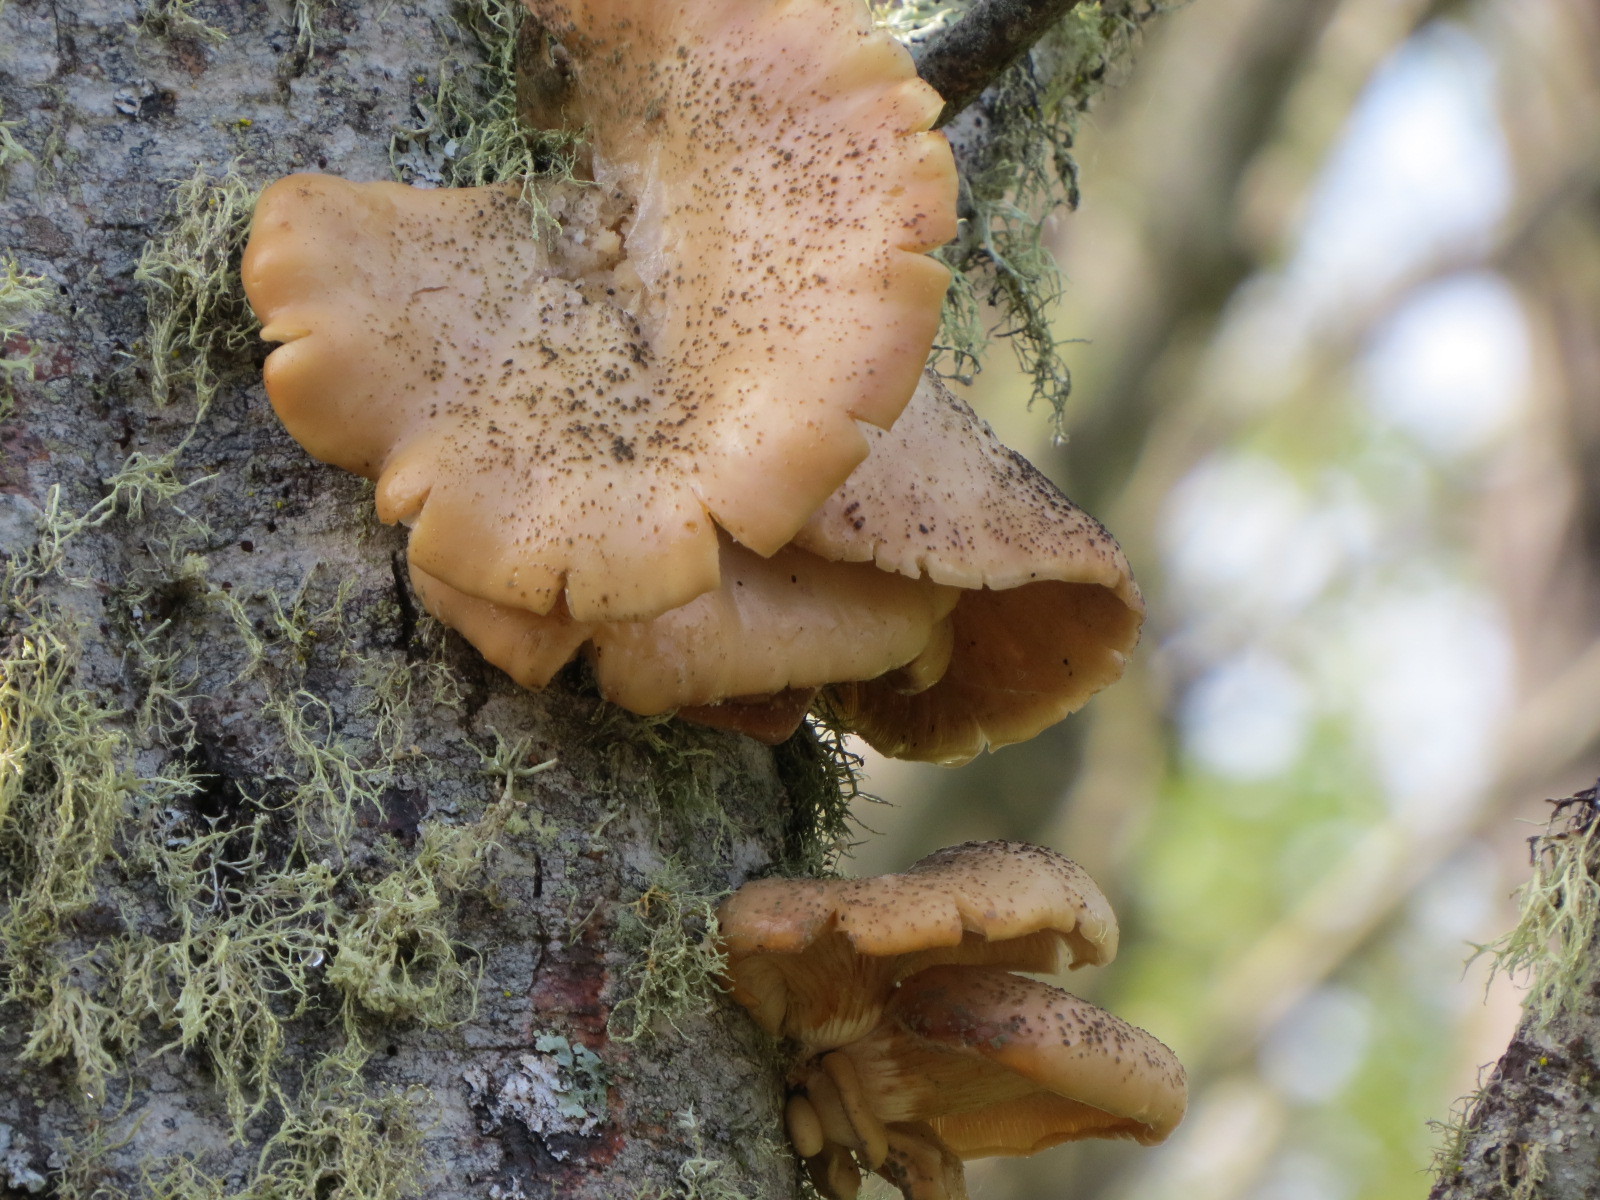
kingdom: Fungi
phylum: Basidiomycota
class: Agaricomycetes
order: Agaricales
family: Pleurotaceae
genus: Pleurotus
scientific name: Pleurotus pulmonarius
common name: Pale oyster
